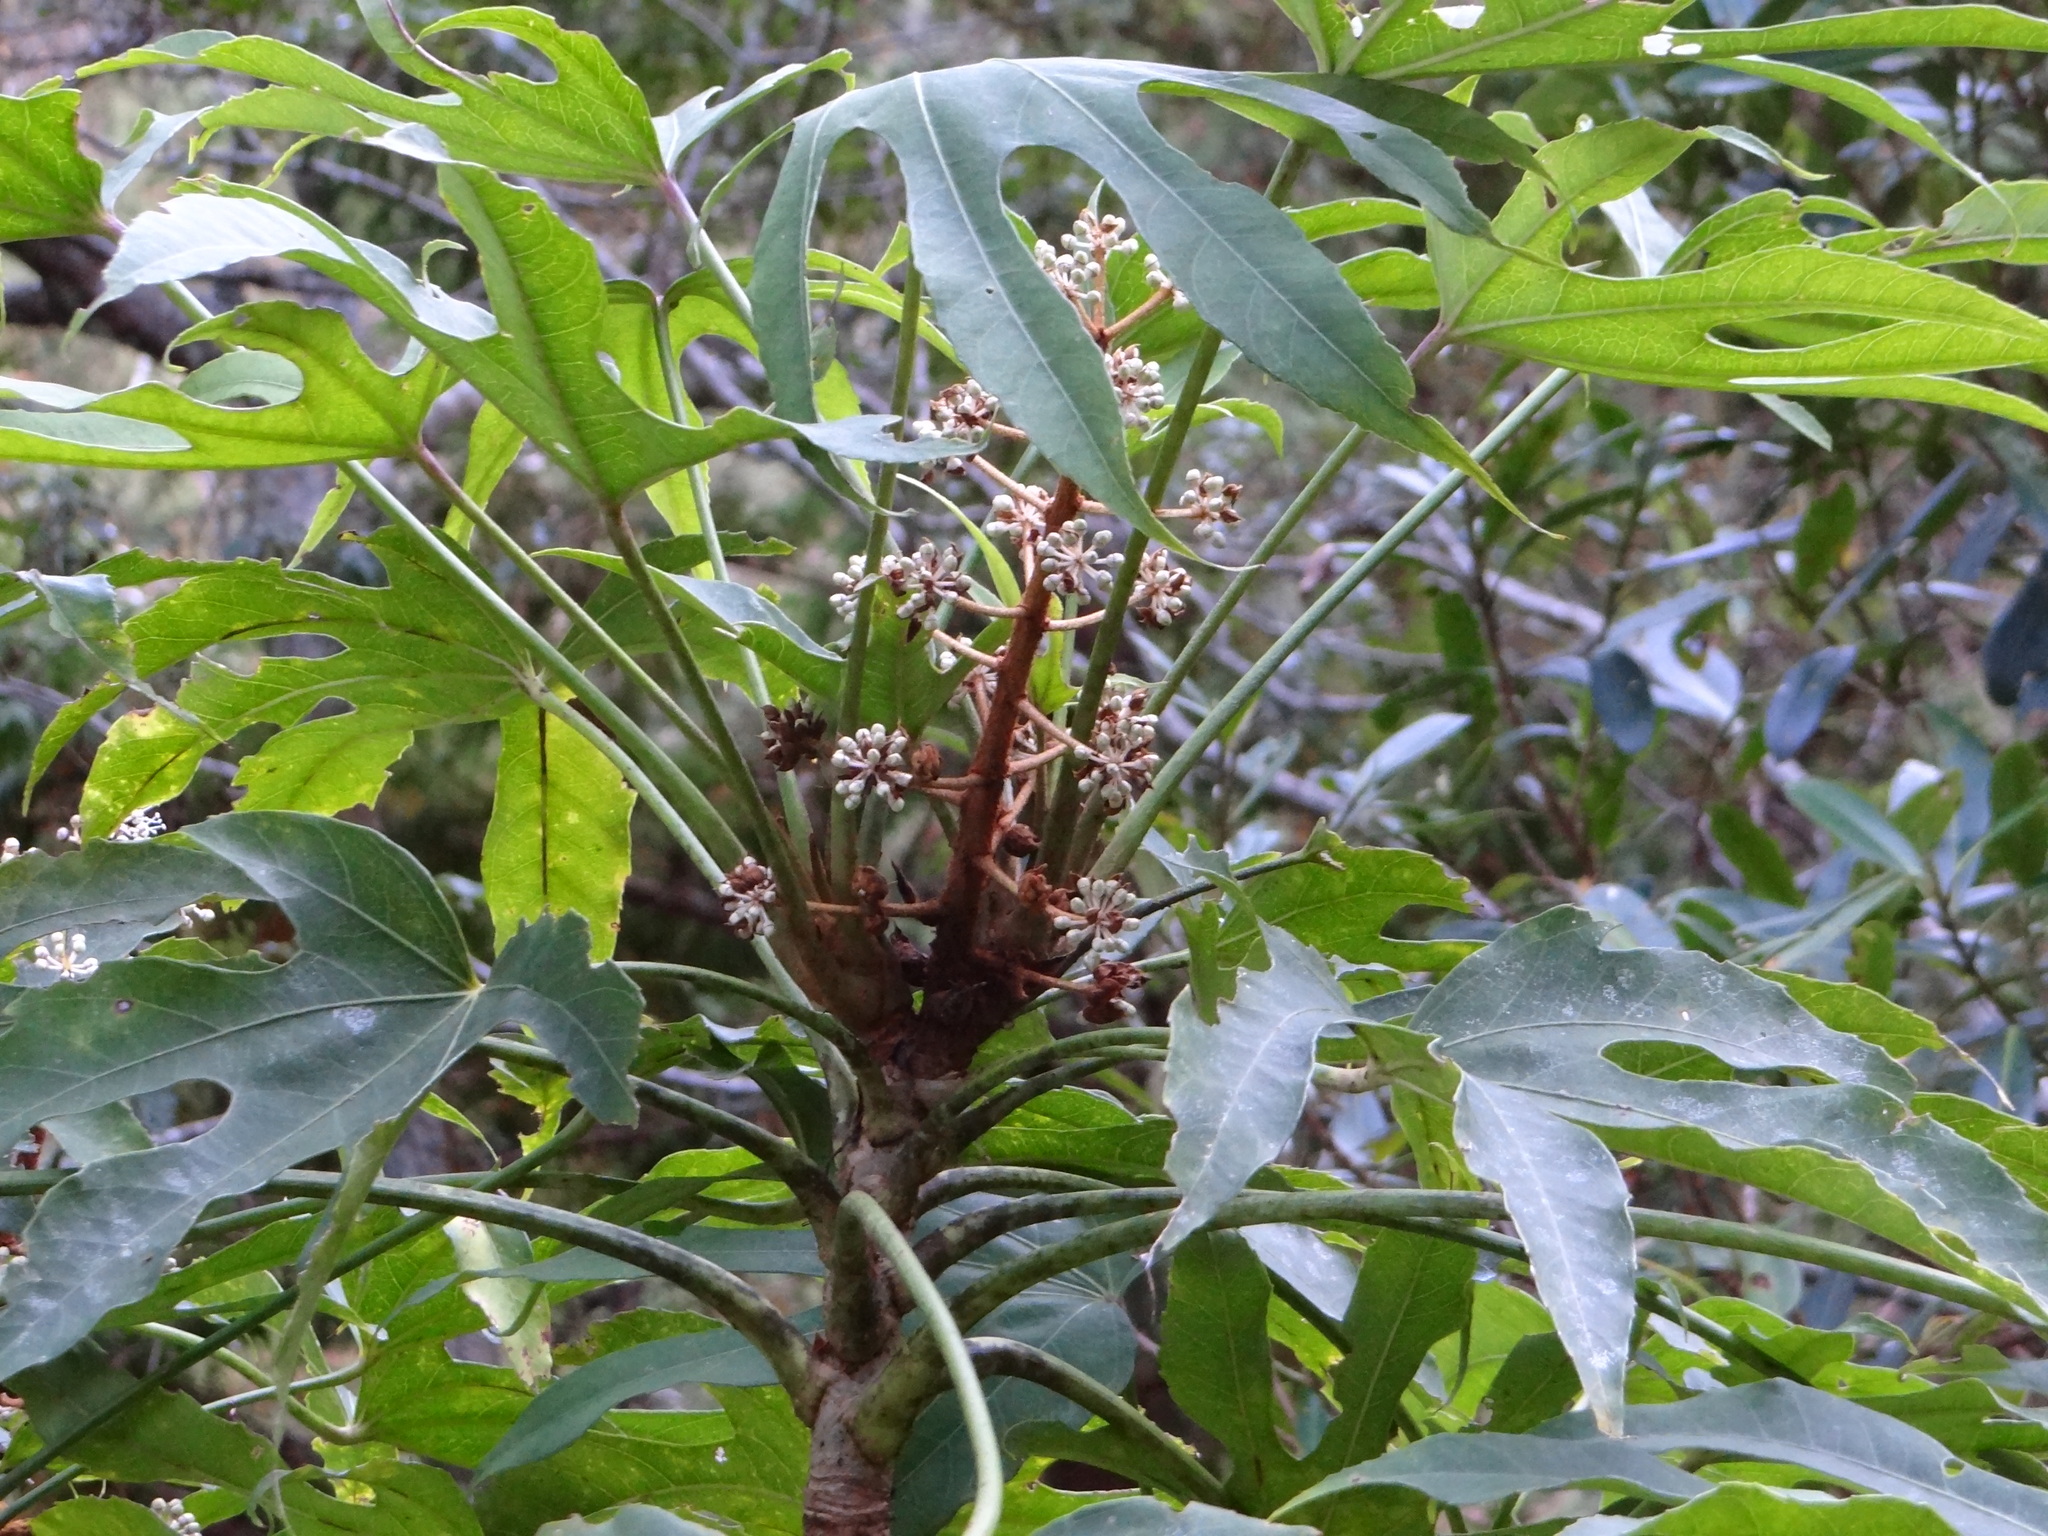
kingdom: Plantae
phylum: Tracheophyta
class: Magnoliopsida
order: Apiales
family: Araliaceae
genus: Fatsia
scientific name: Fatsia polycarpa
